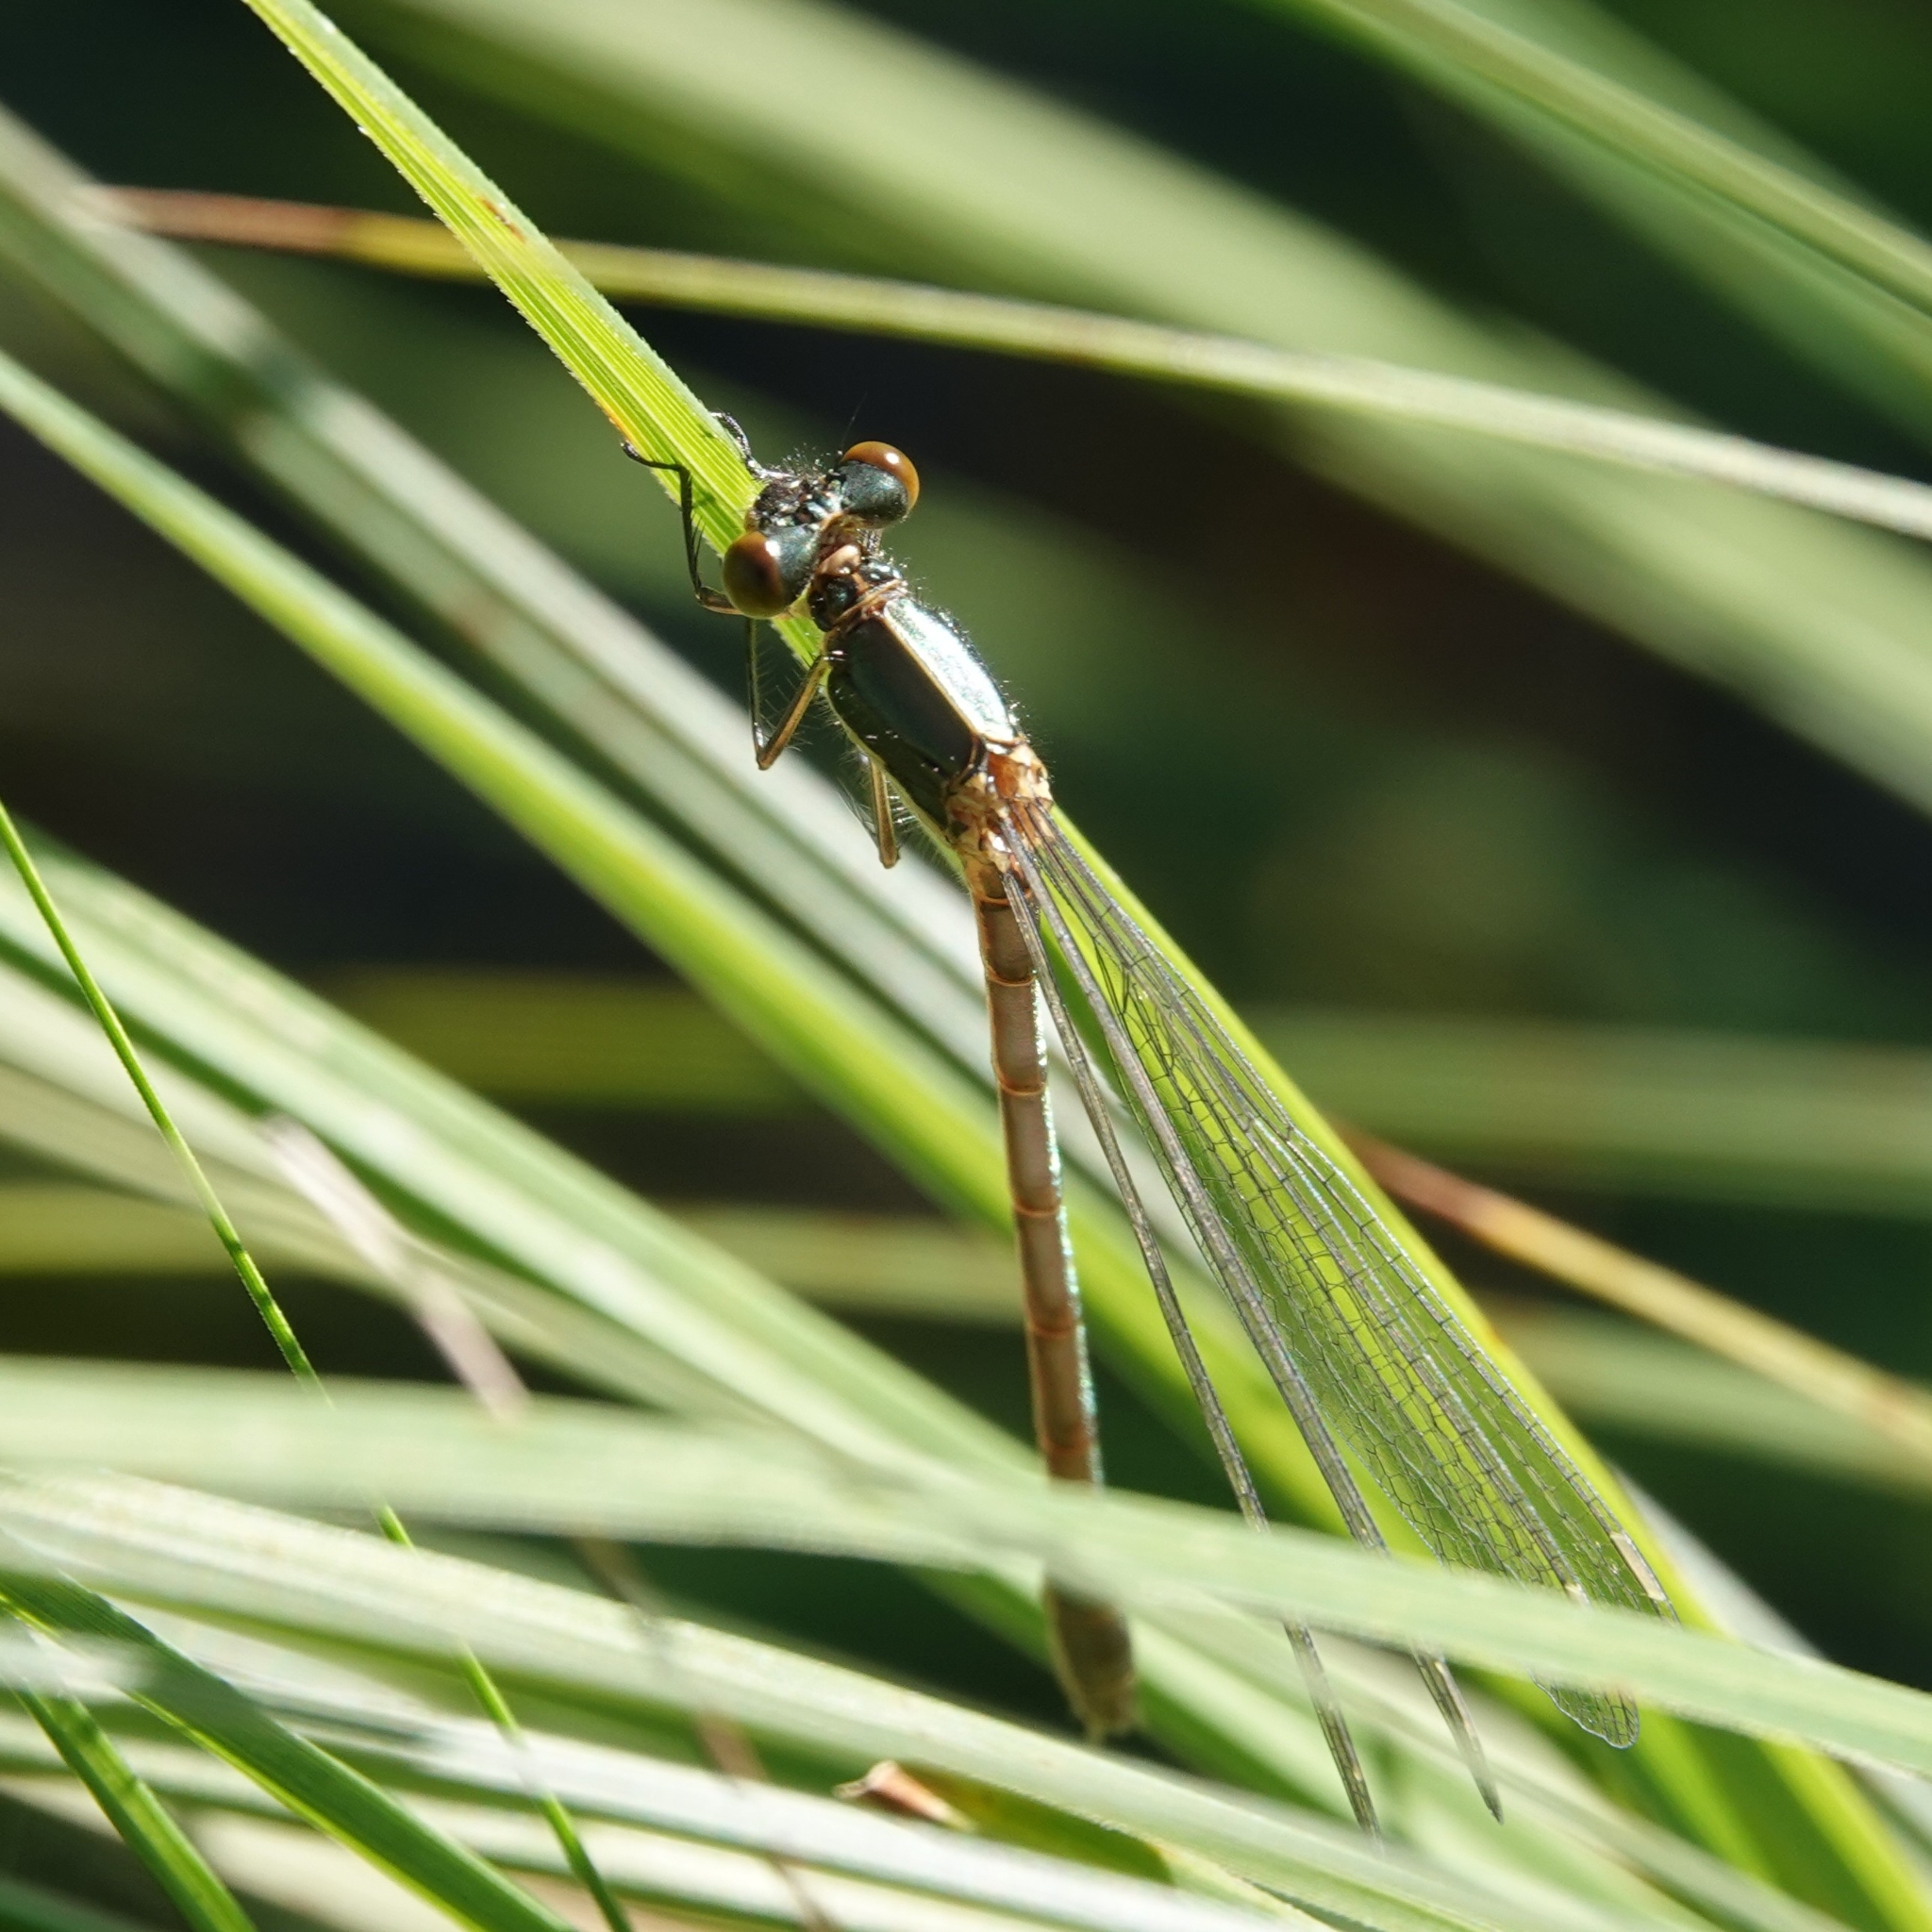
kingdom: Animalia
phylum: Arthropoda
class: Insecta
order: Odonata
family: Lestidae
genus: Lestes
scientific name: Lestes dryas
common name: Scarce emerald damselfly
